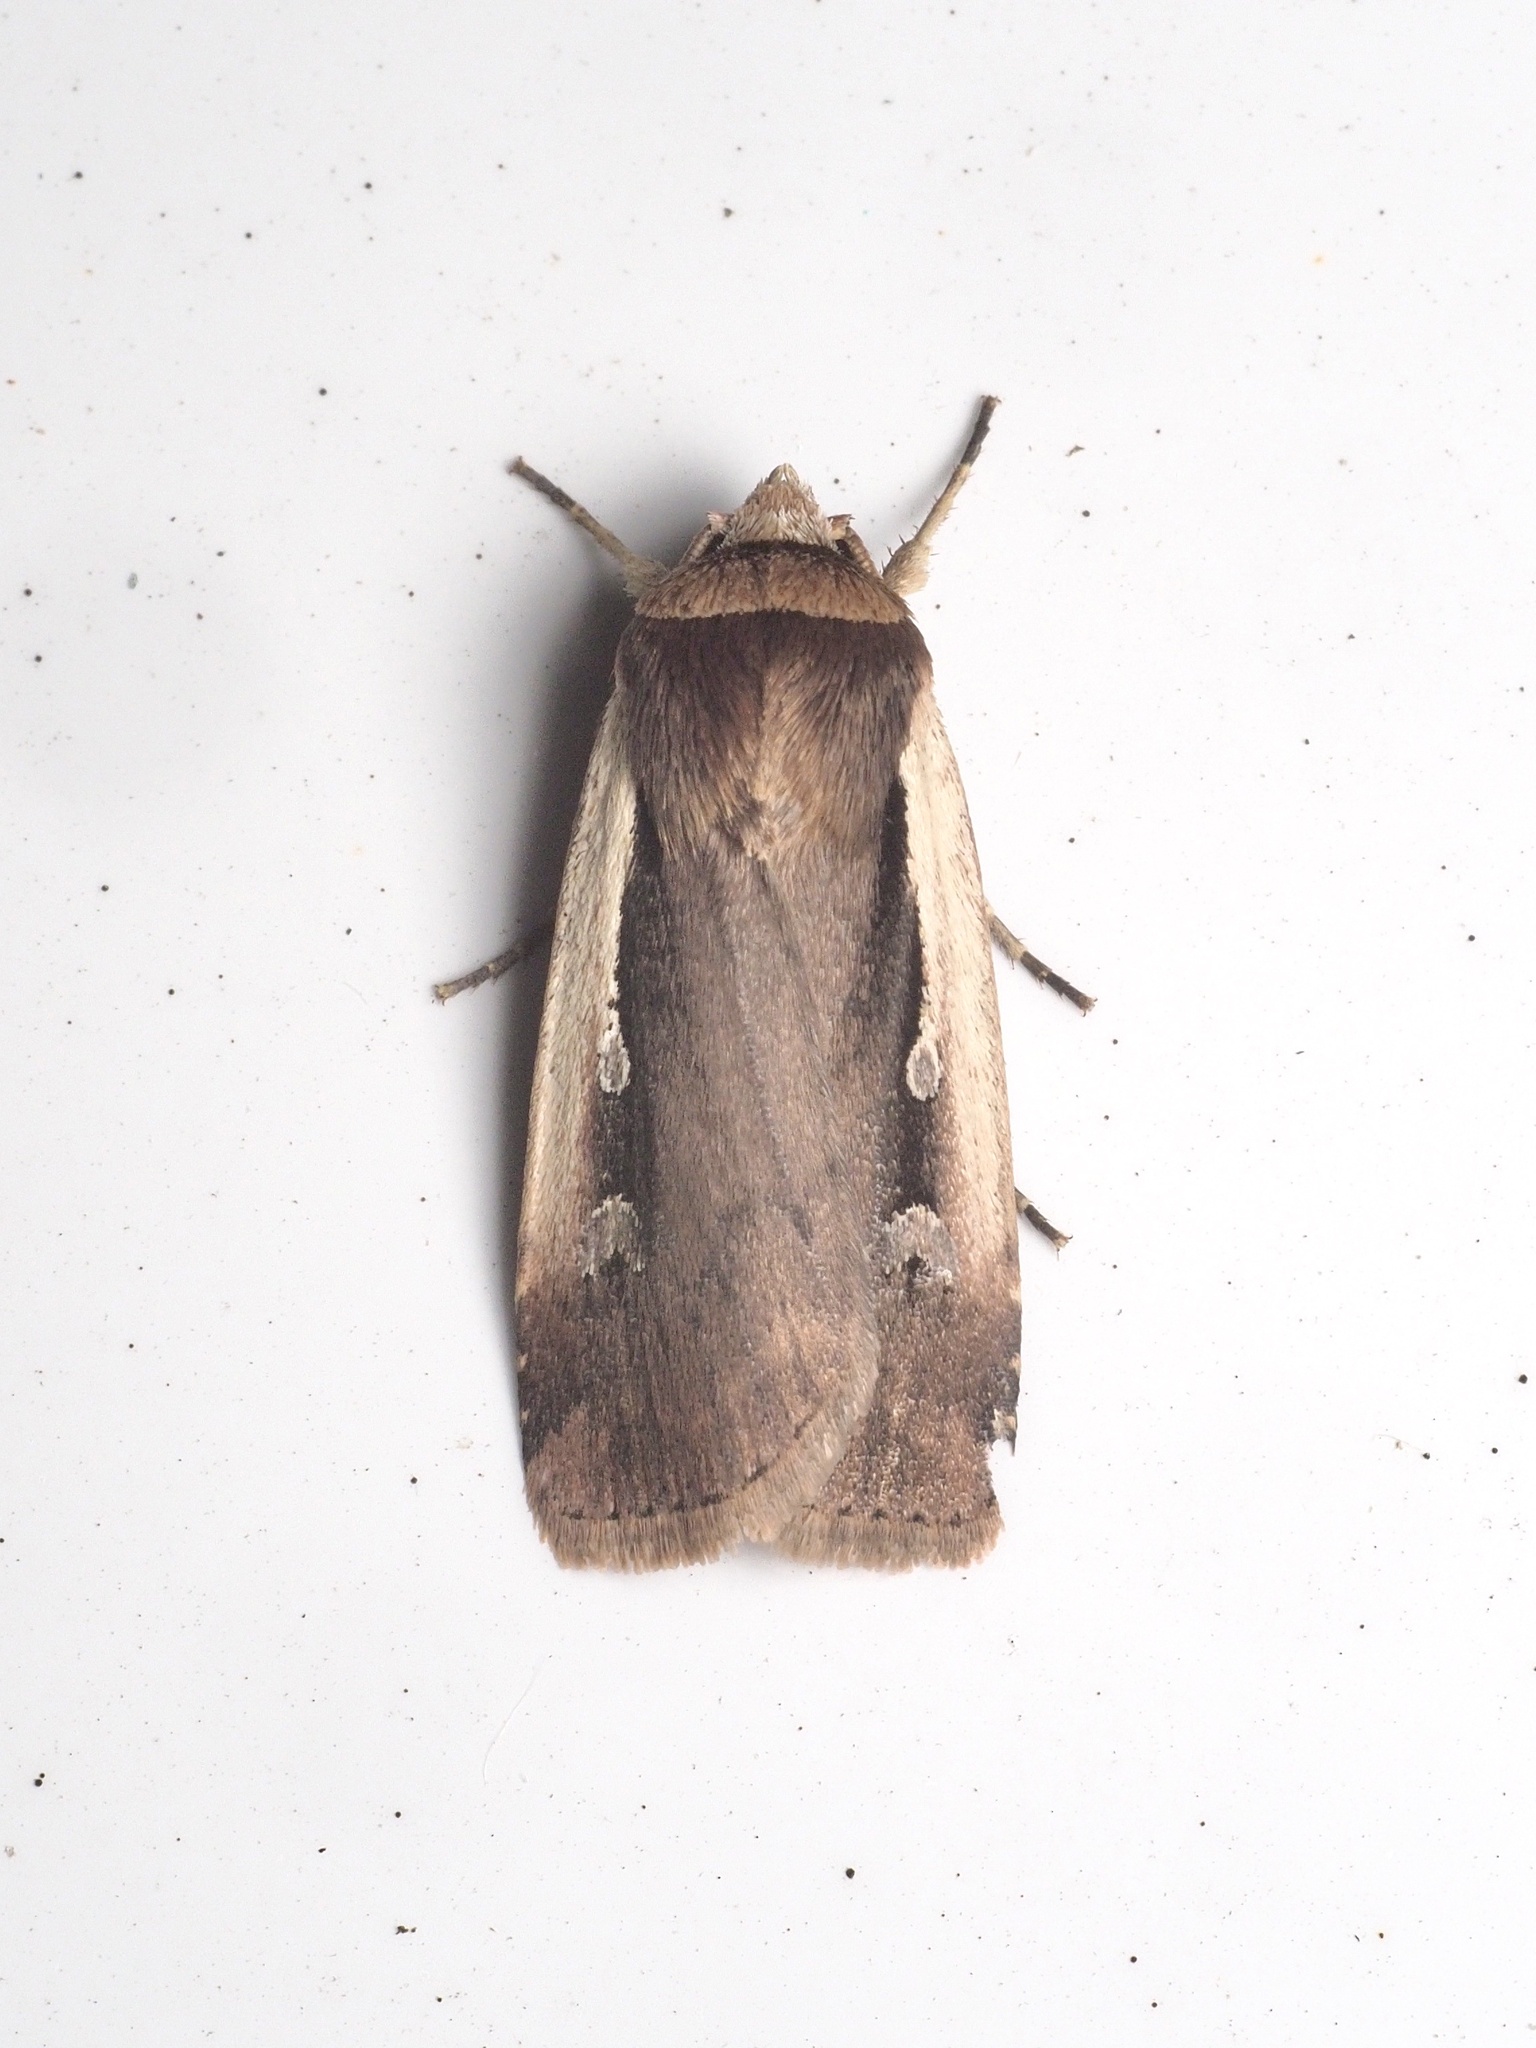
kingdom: Animalia
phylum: Arthropoda
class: Insecta
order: Lepidoptera
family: Noctuidae
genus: Ochropleura
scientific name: Ochropleura plecta
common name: Flame shoulder
